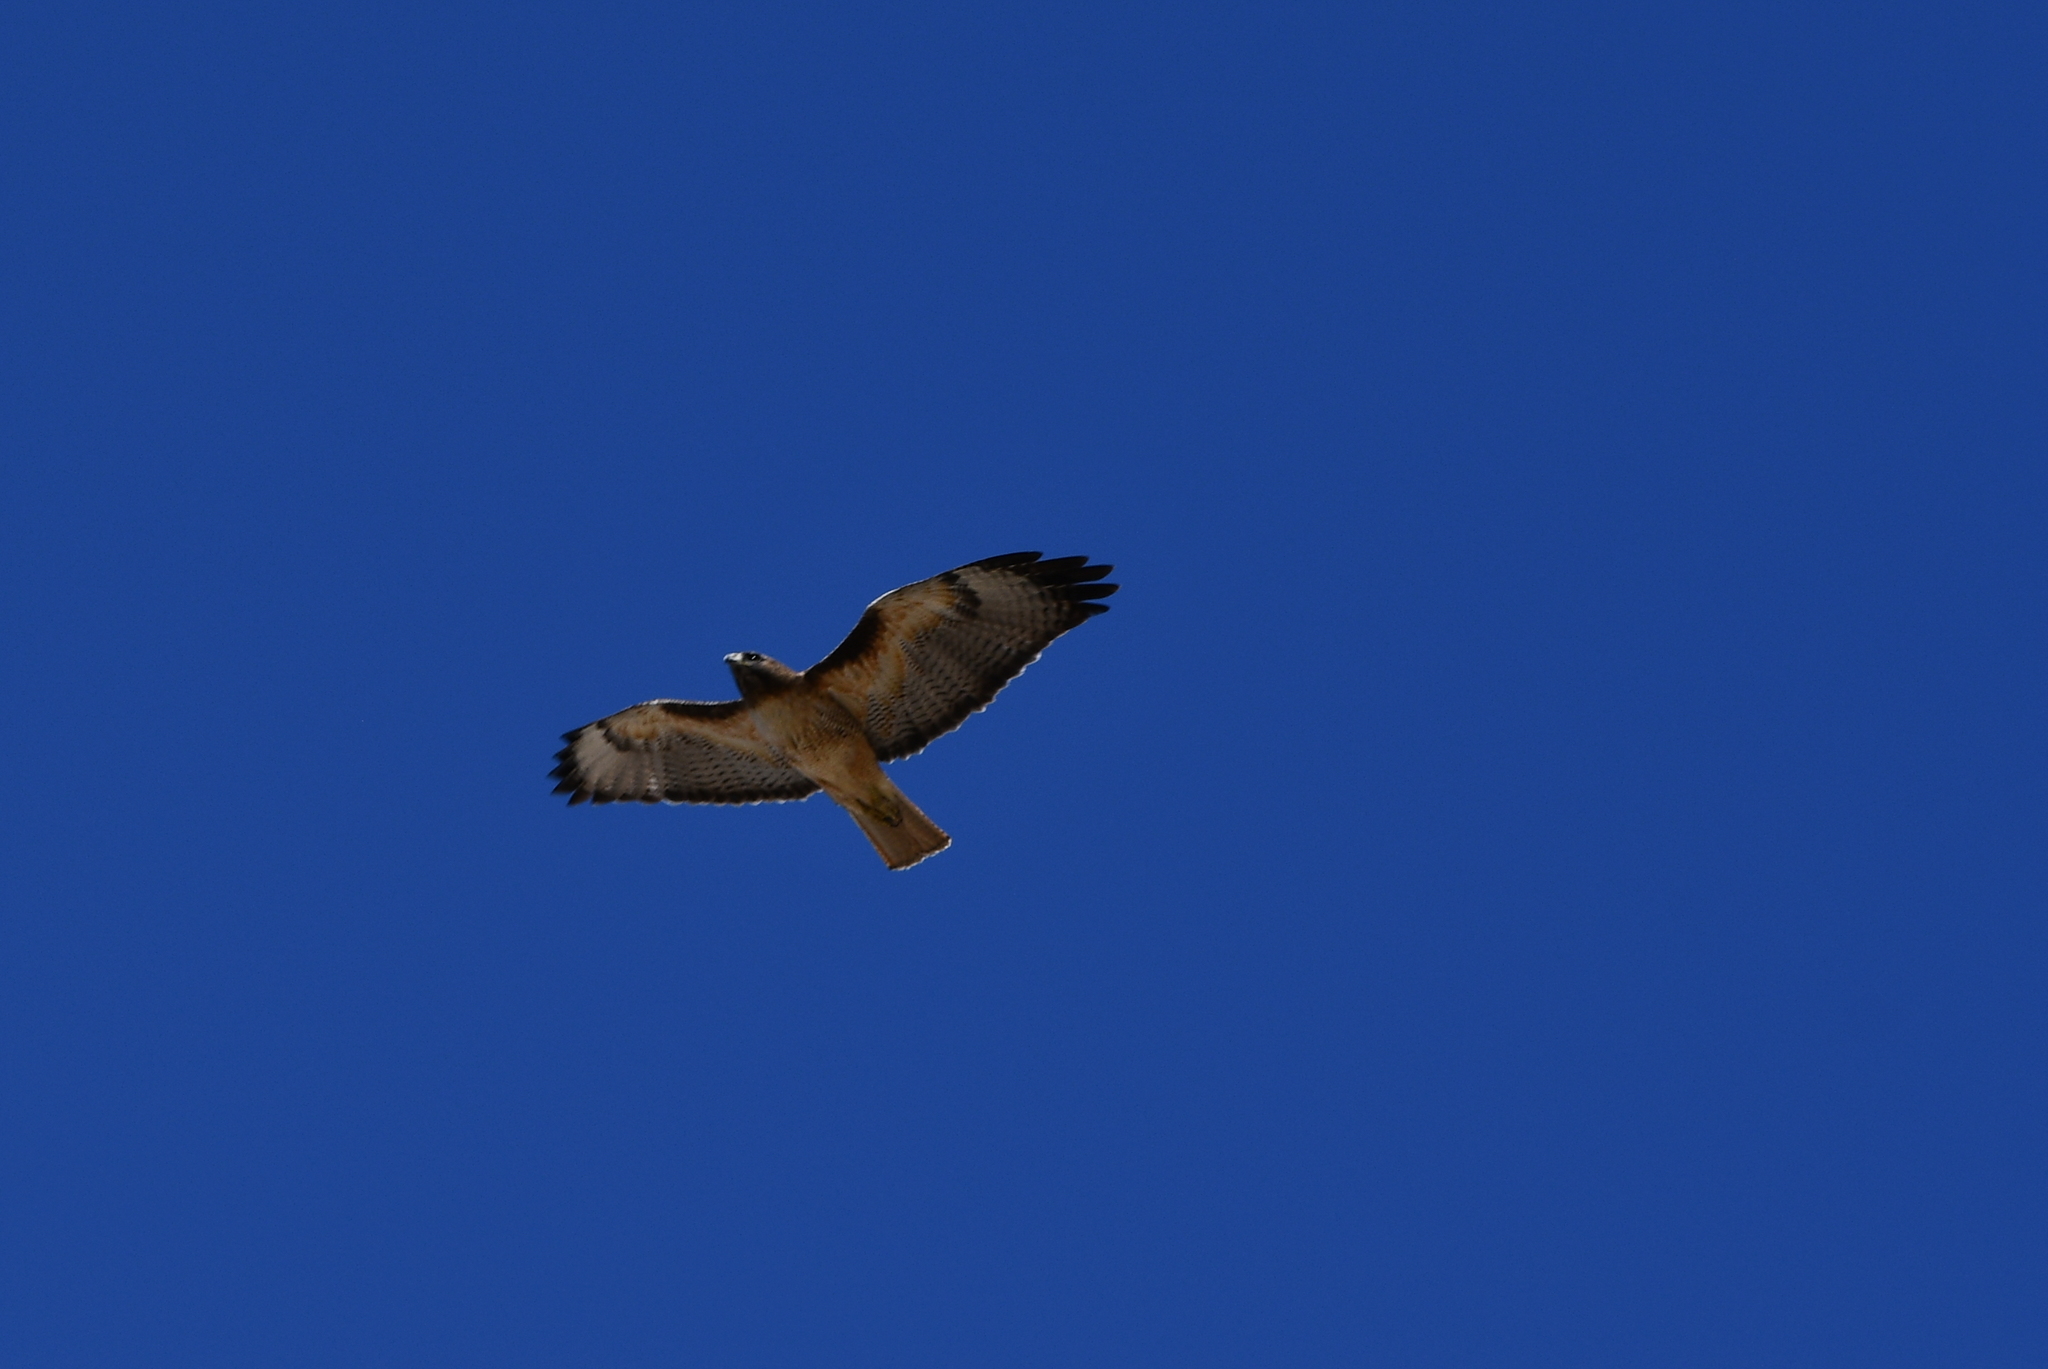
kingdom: Animalia
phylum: Chordata
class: Aves
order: Accipitriformes
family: Accipitridae
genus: Buteo
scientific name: Buteo jamaicensis
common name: Red-tailed hawk
